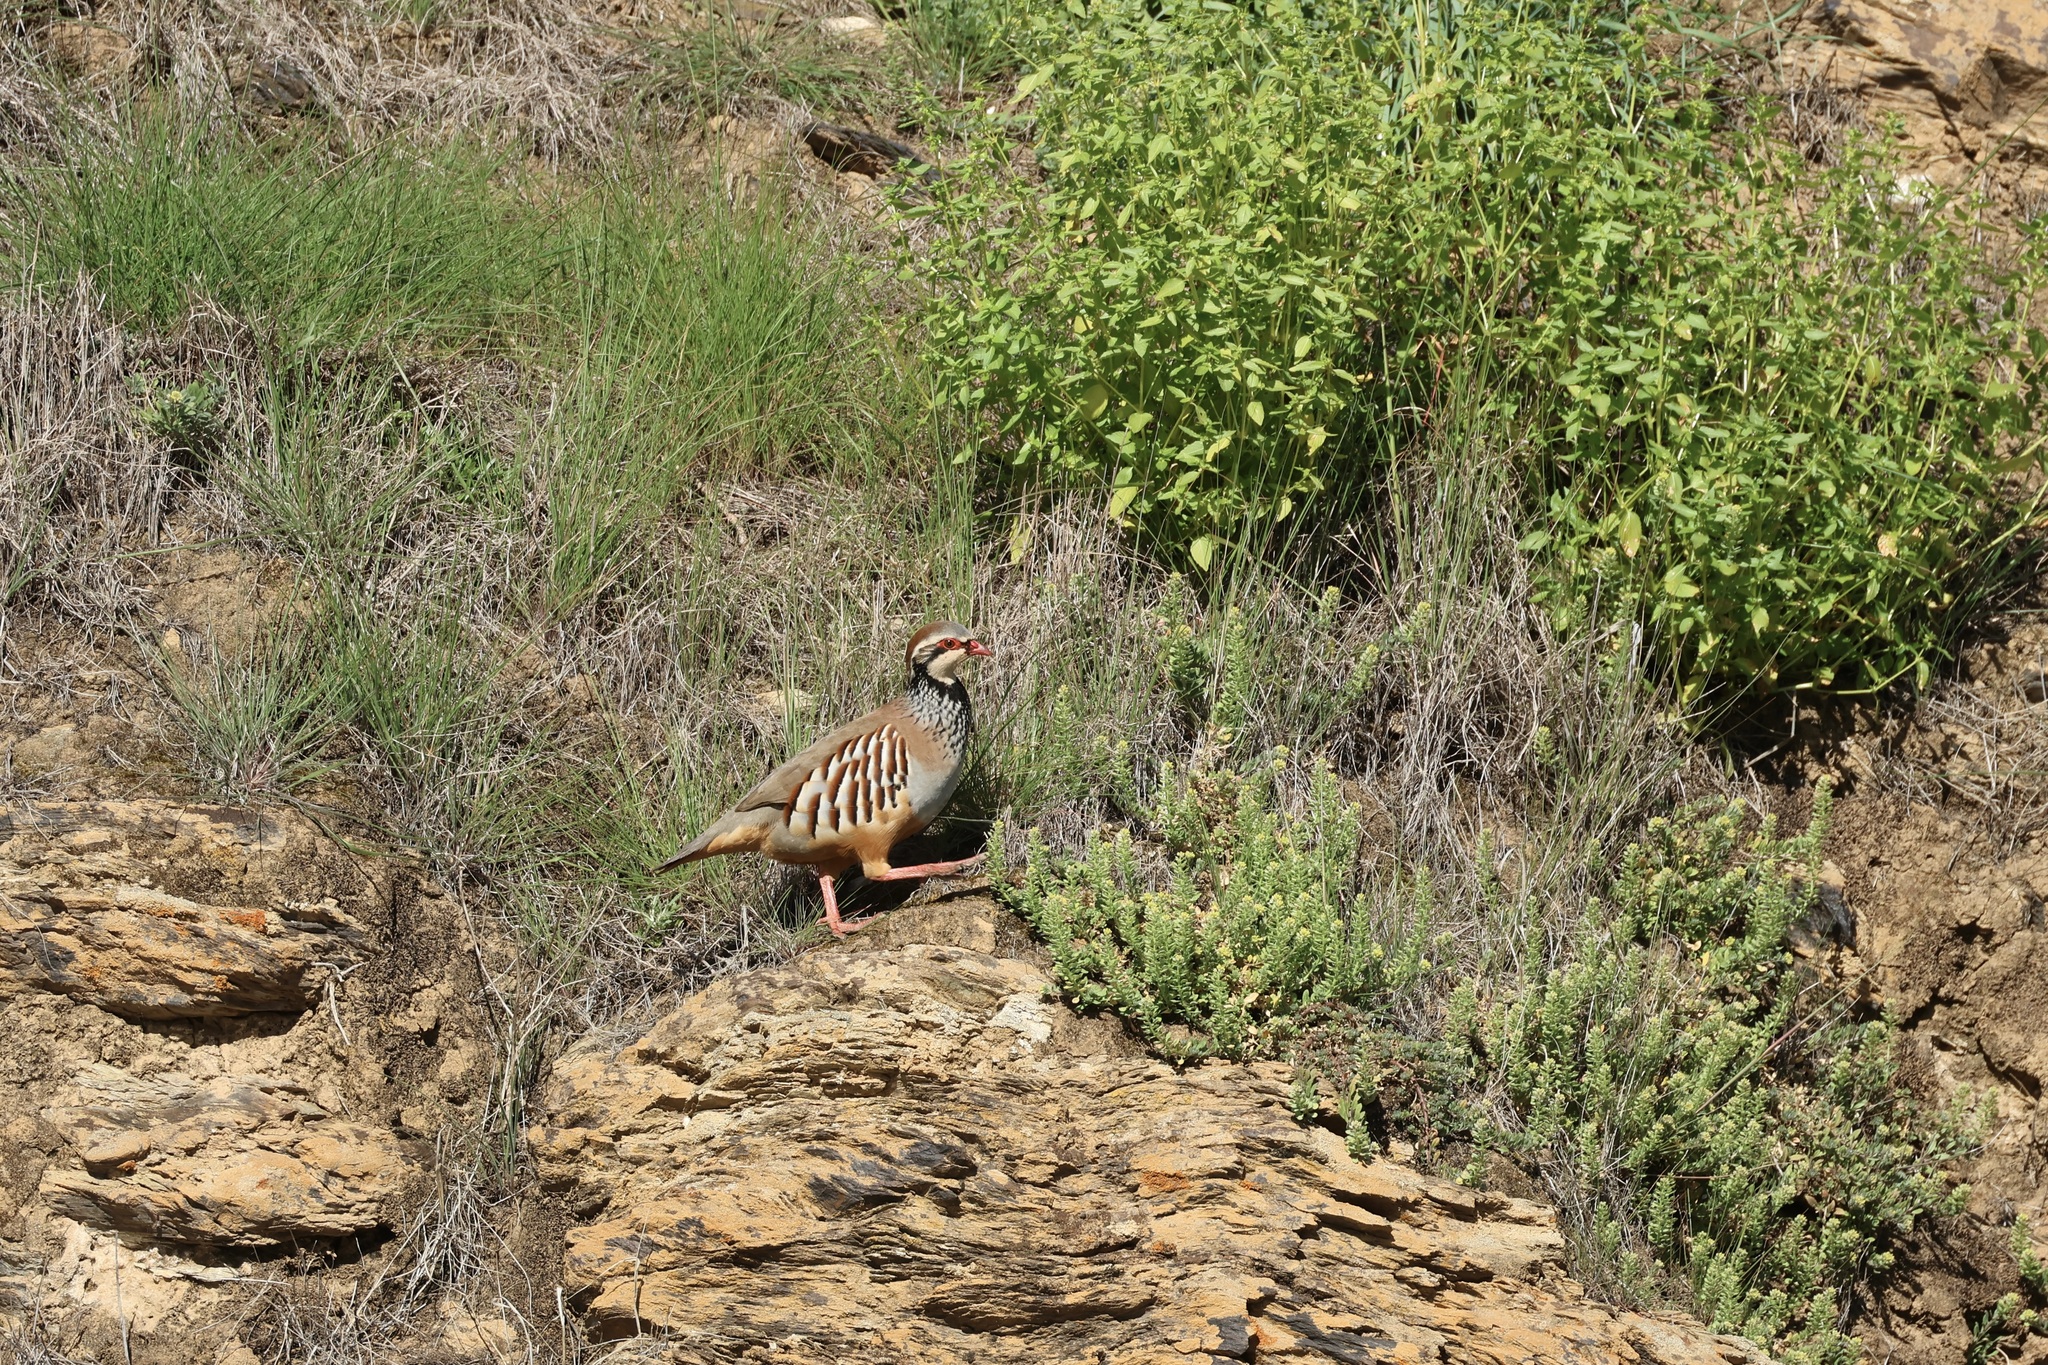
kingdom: Animalia
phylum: Chordata
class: Aves
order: Galliformes
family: Phasianidae
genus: Alectoris
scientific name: Alectoris rufa
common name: Red-legged partridge
